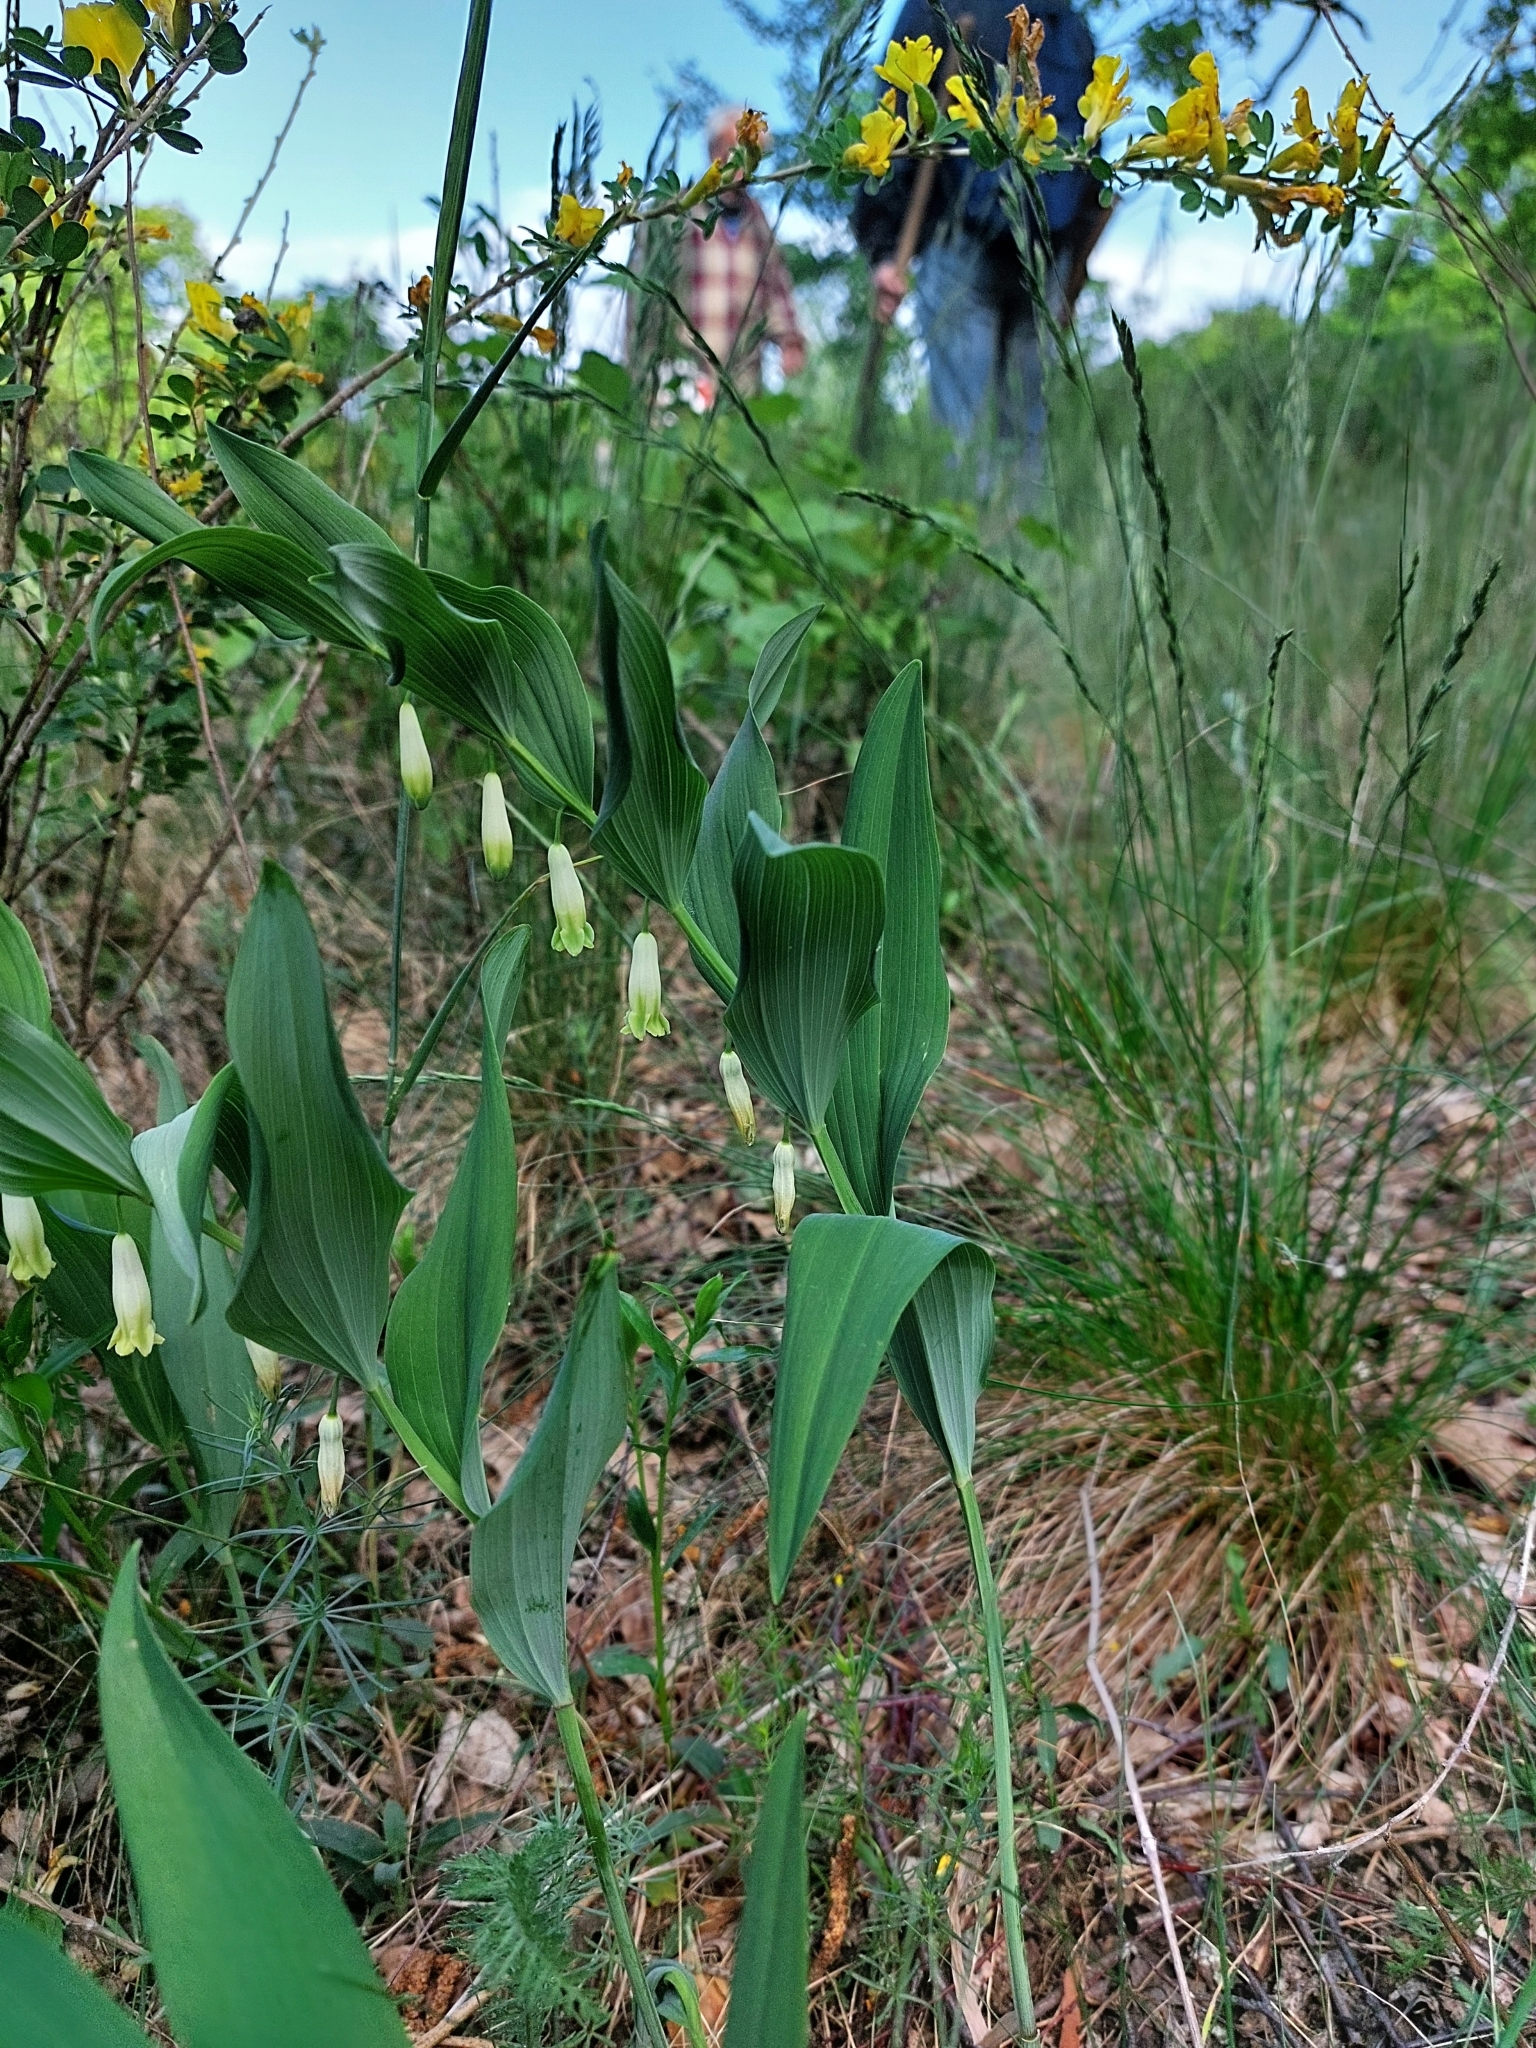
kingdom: Plantae
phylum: Tracheophyta
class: Liliopsida
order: Asparagales
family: Asparagaceae
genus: Polygonatum
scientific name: Polygonatum odoratum
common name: Angular solomon's-seal
